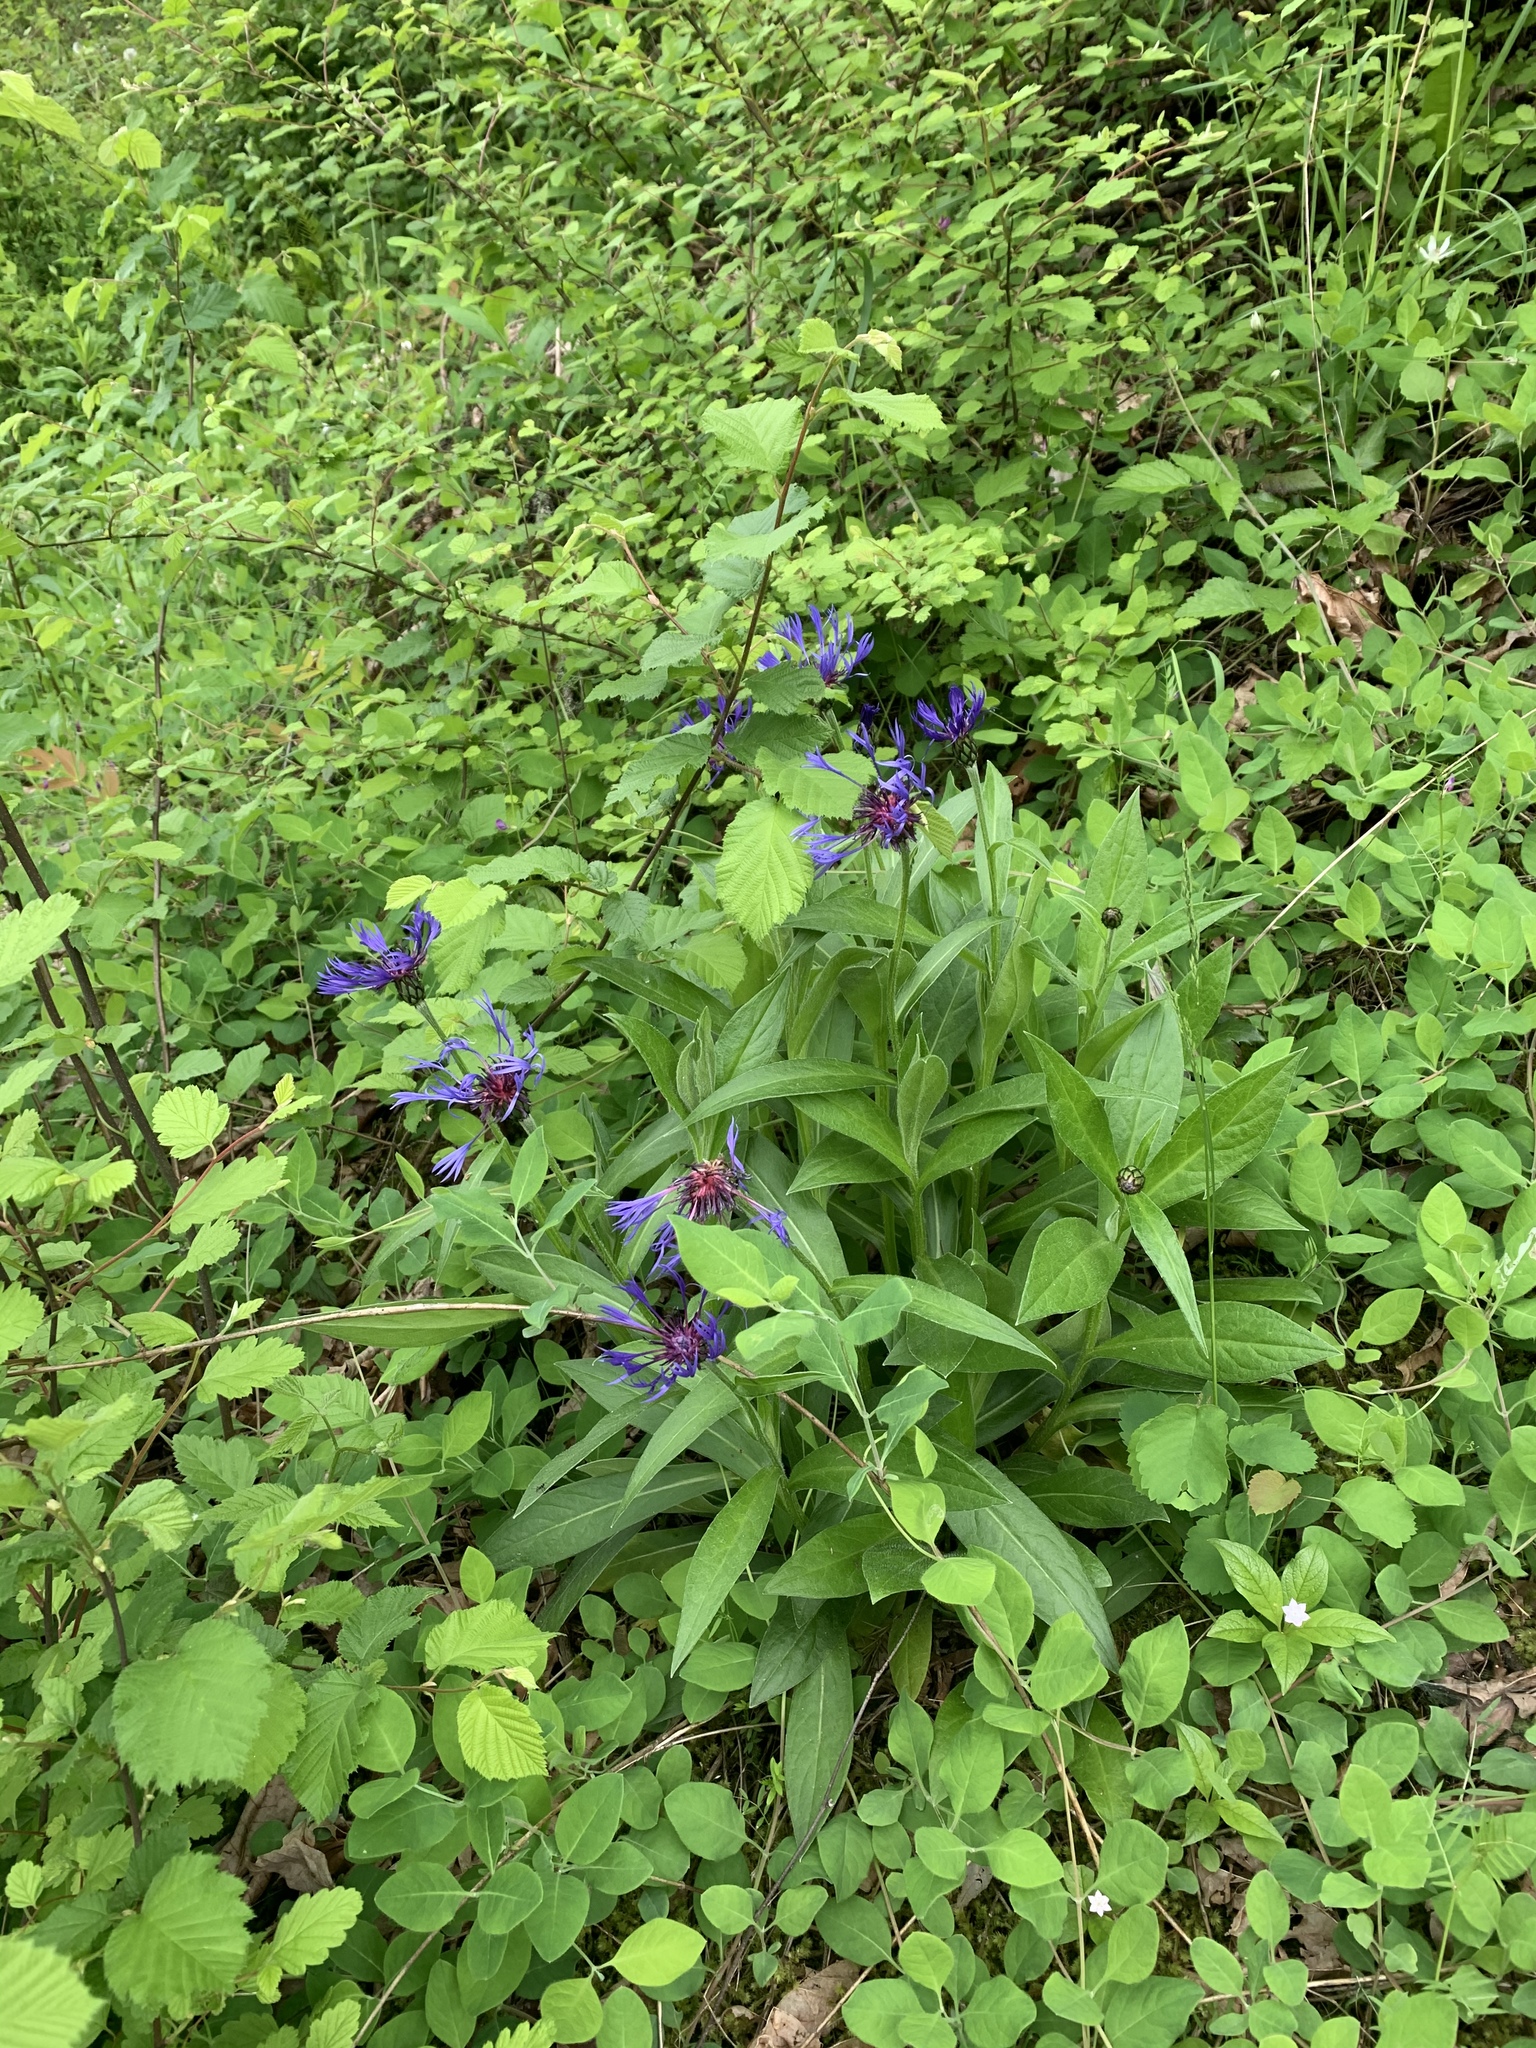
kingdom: Plantae
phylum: Tracheophyta
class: Magnoliopsida
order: Asterales
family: Asteraceae
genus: Centaurea
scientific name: Centaurea montana
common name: Perennial cornflower
